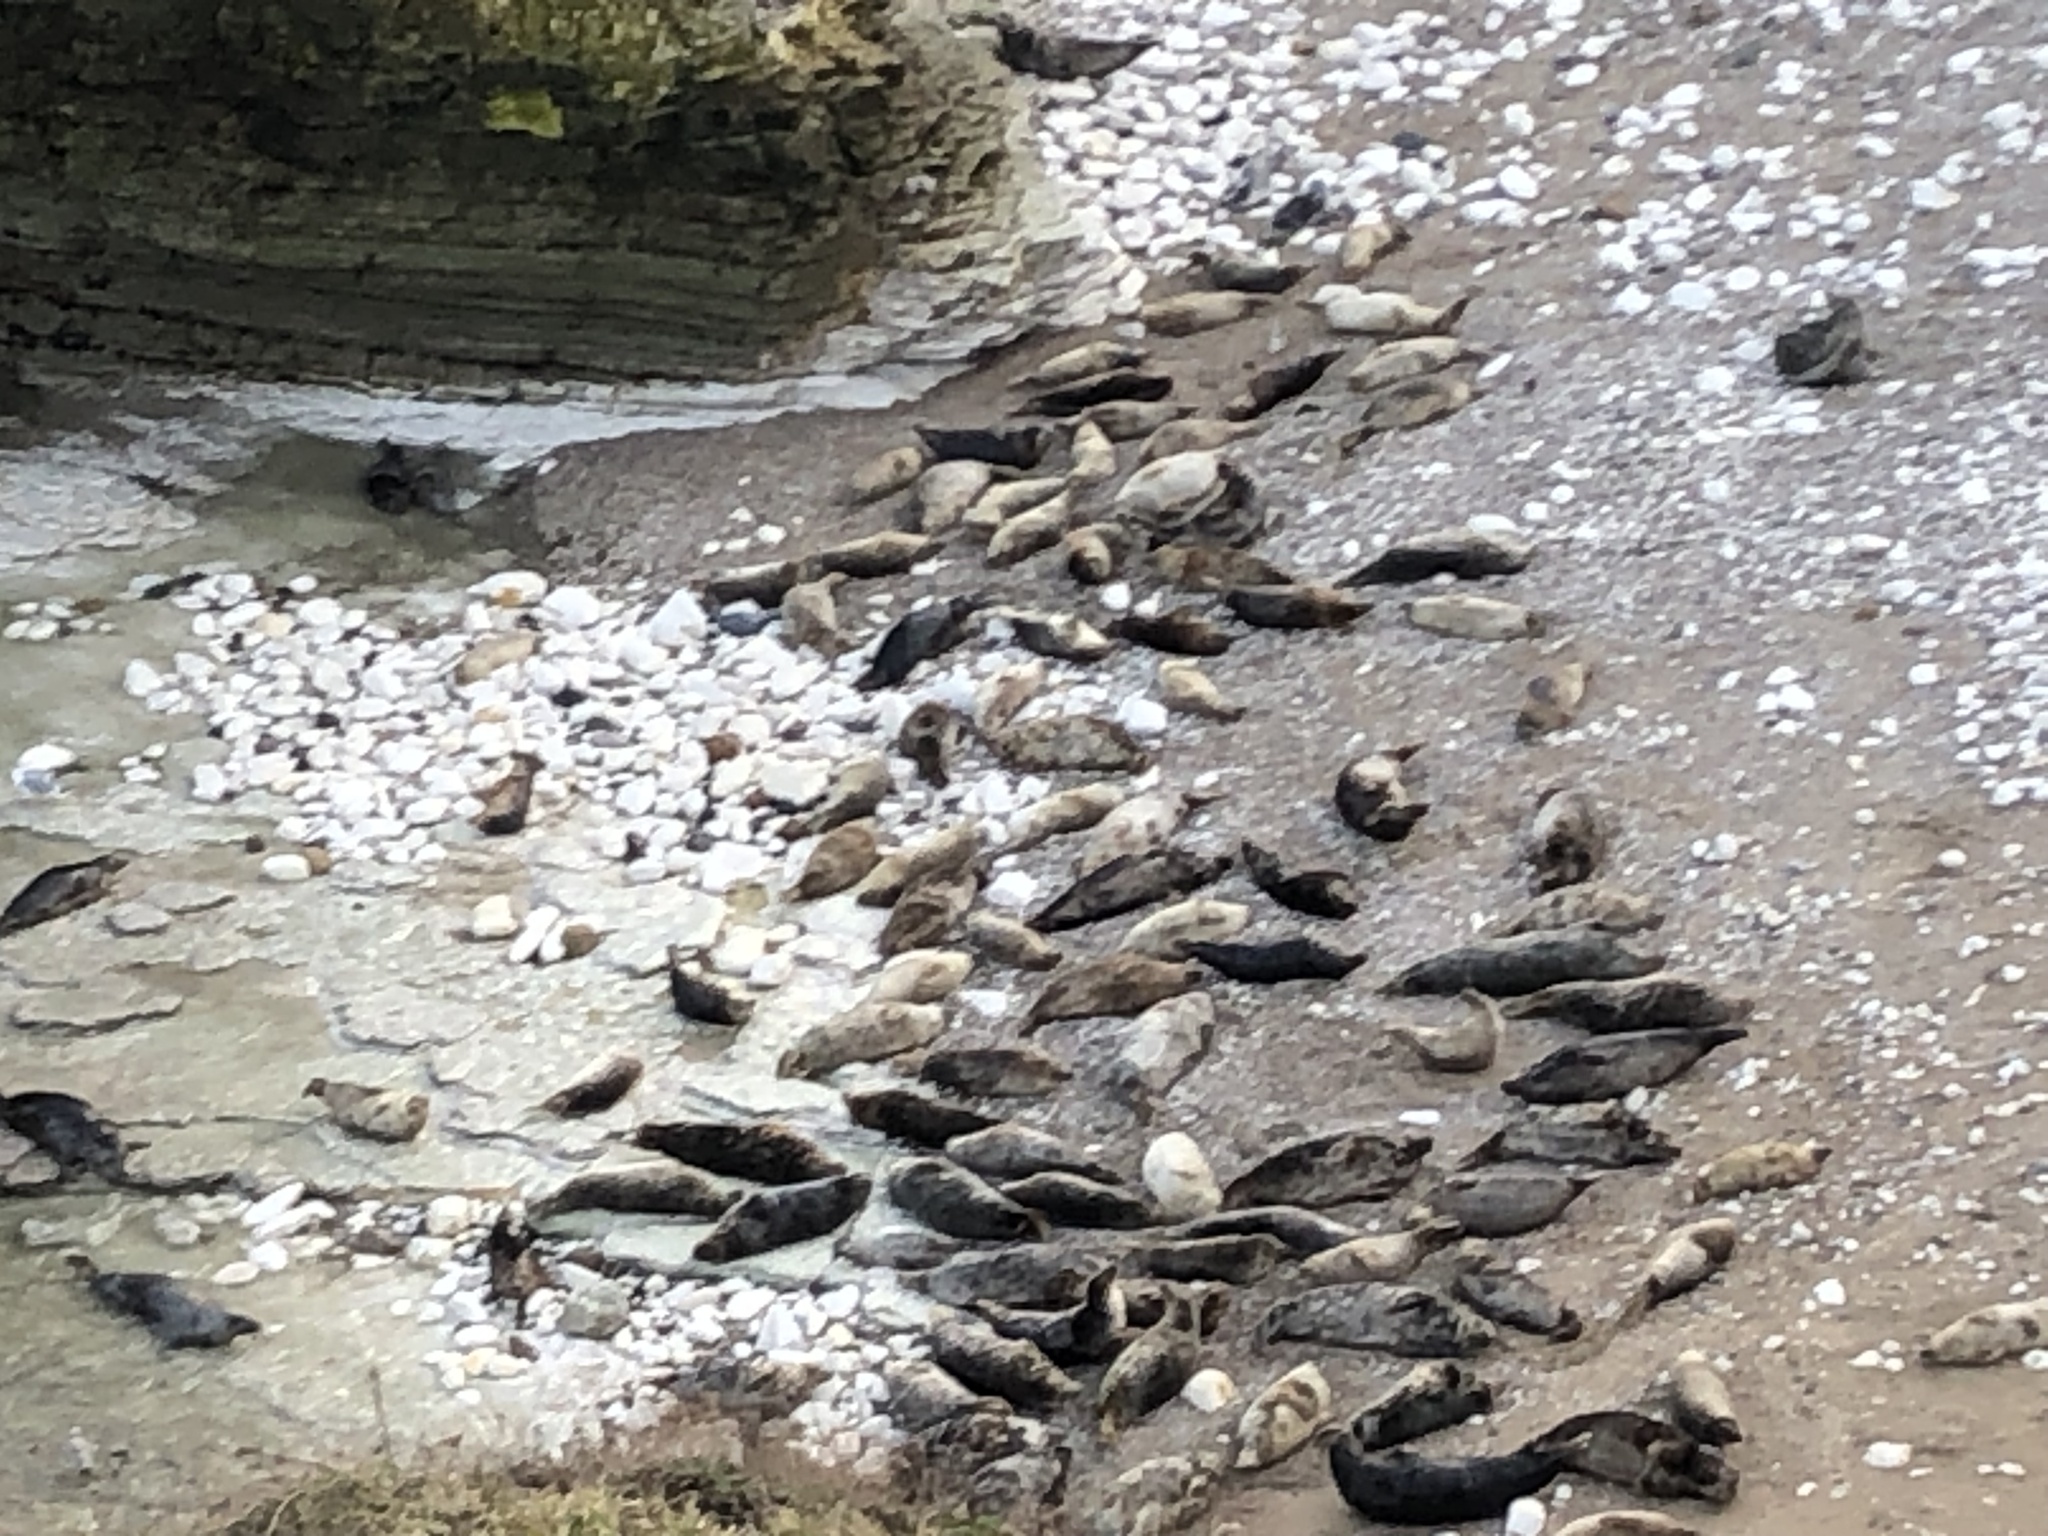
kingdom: Animalia
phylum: Chordata
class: Mammalia
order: Carnivora
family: Phocidae
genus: Halichoerus
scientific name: Halichoerus grypus
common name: Grey seal
